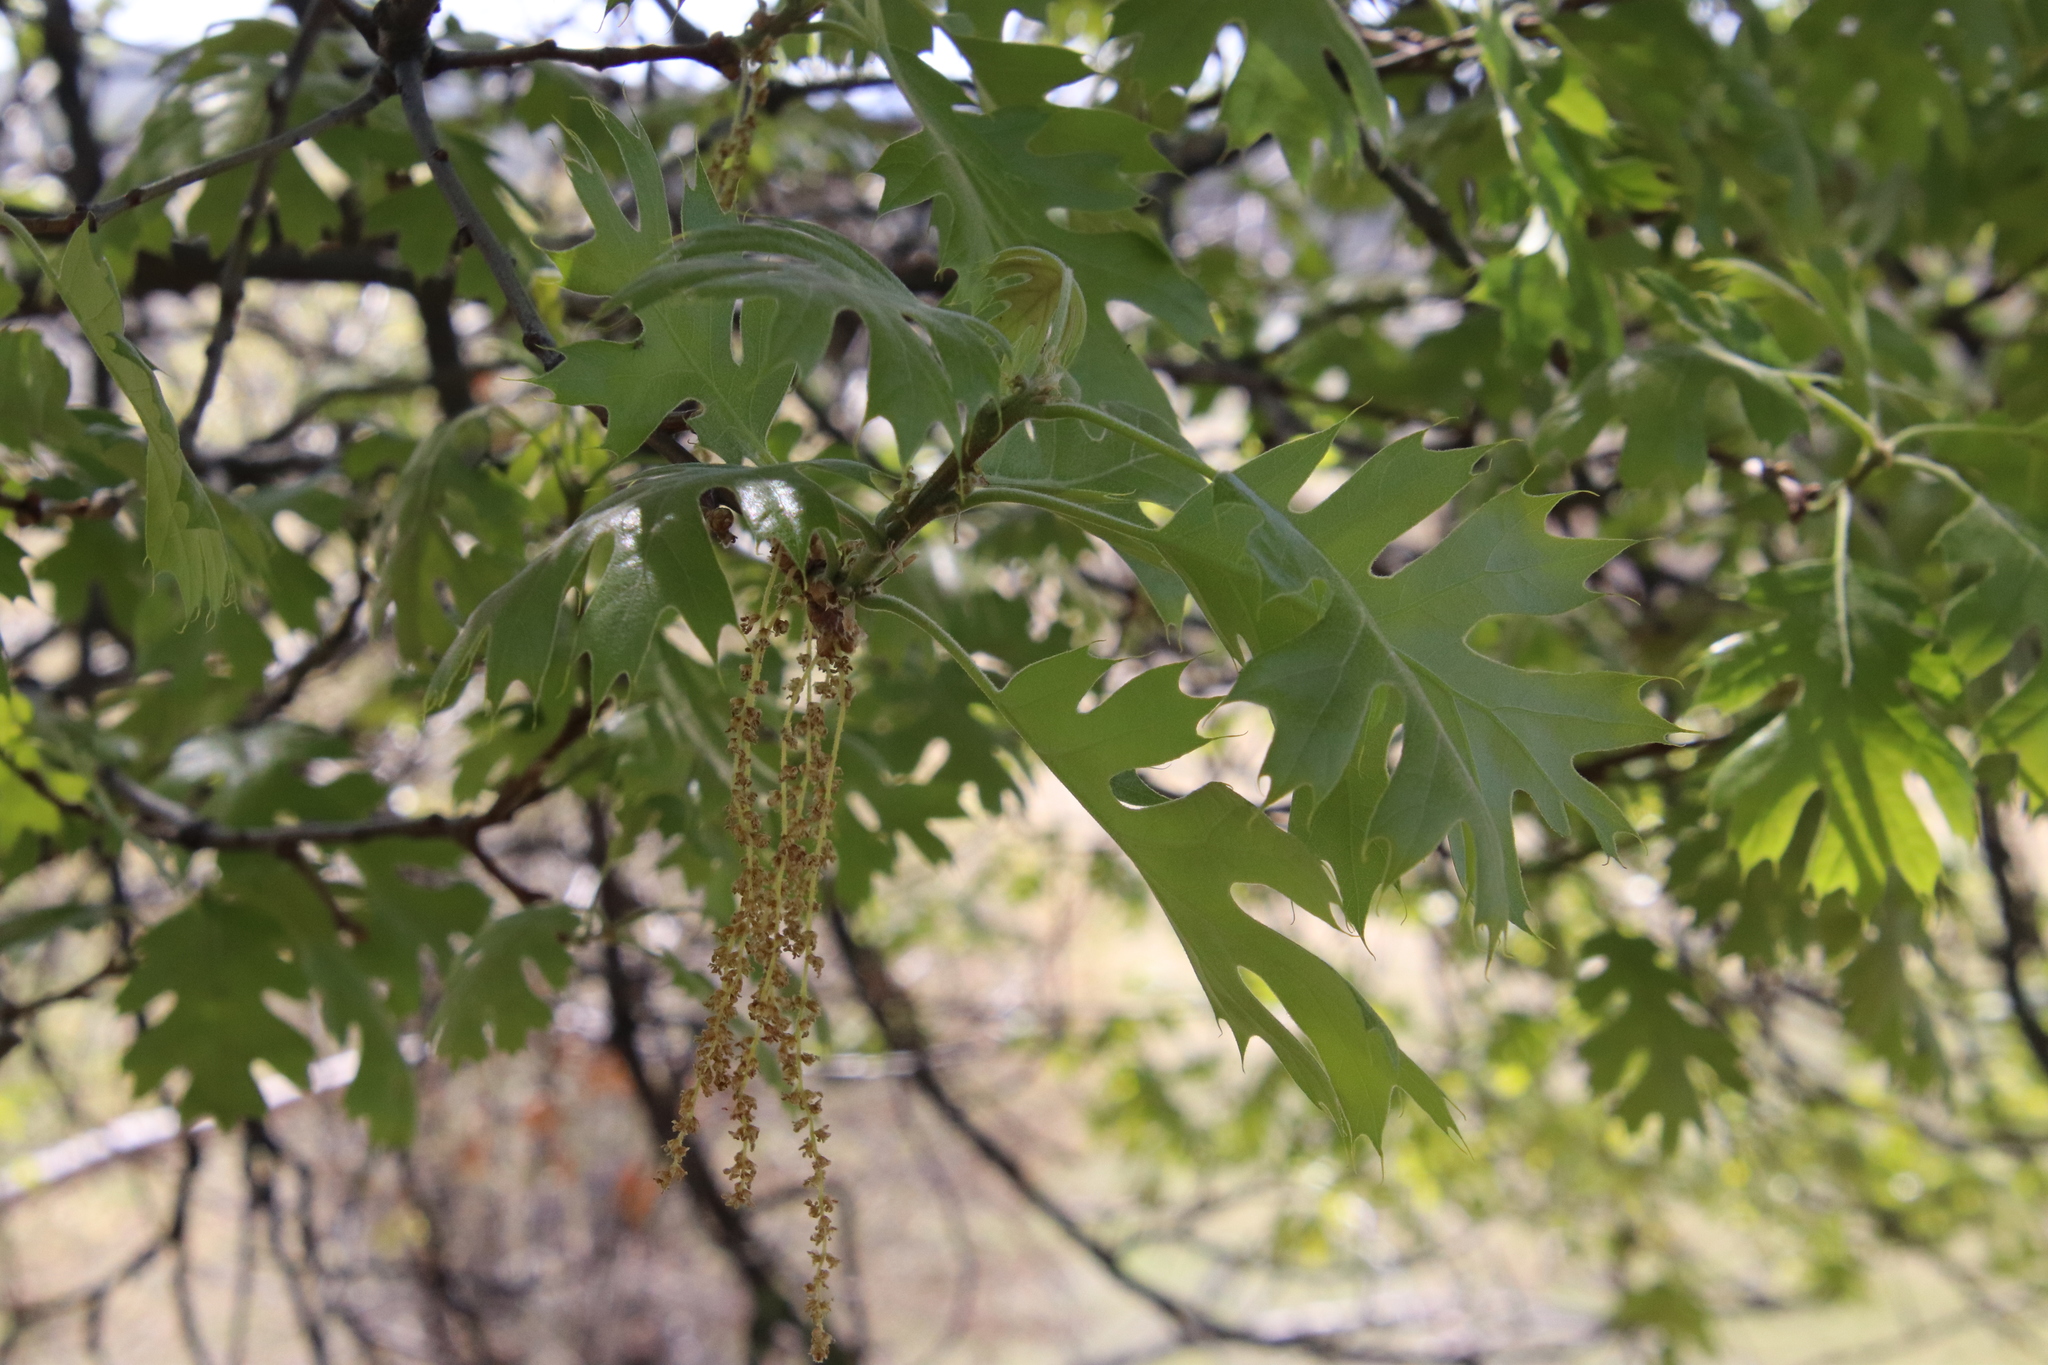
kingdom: Plantae
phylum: Tracheophyta
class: Magnoliopsida
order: Fagales
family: Fagaceae
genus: Quercus
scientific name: Quercus kelloggii
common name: California black oak
